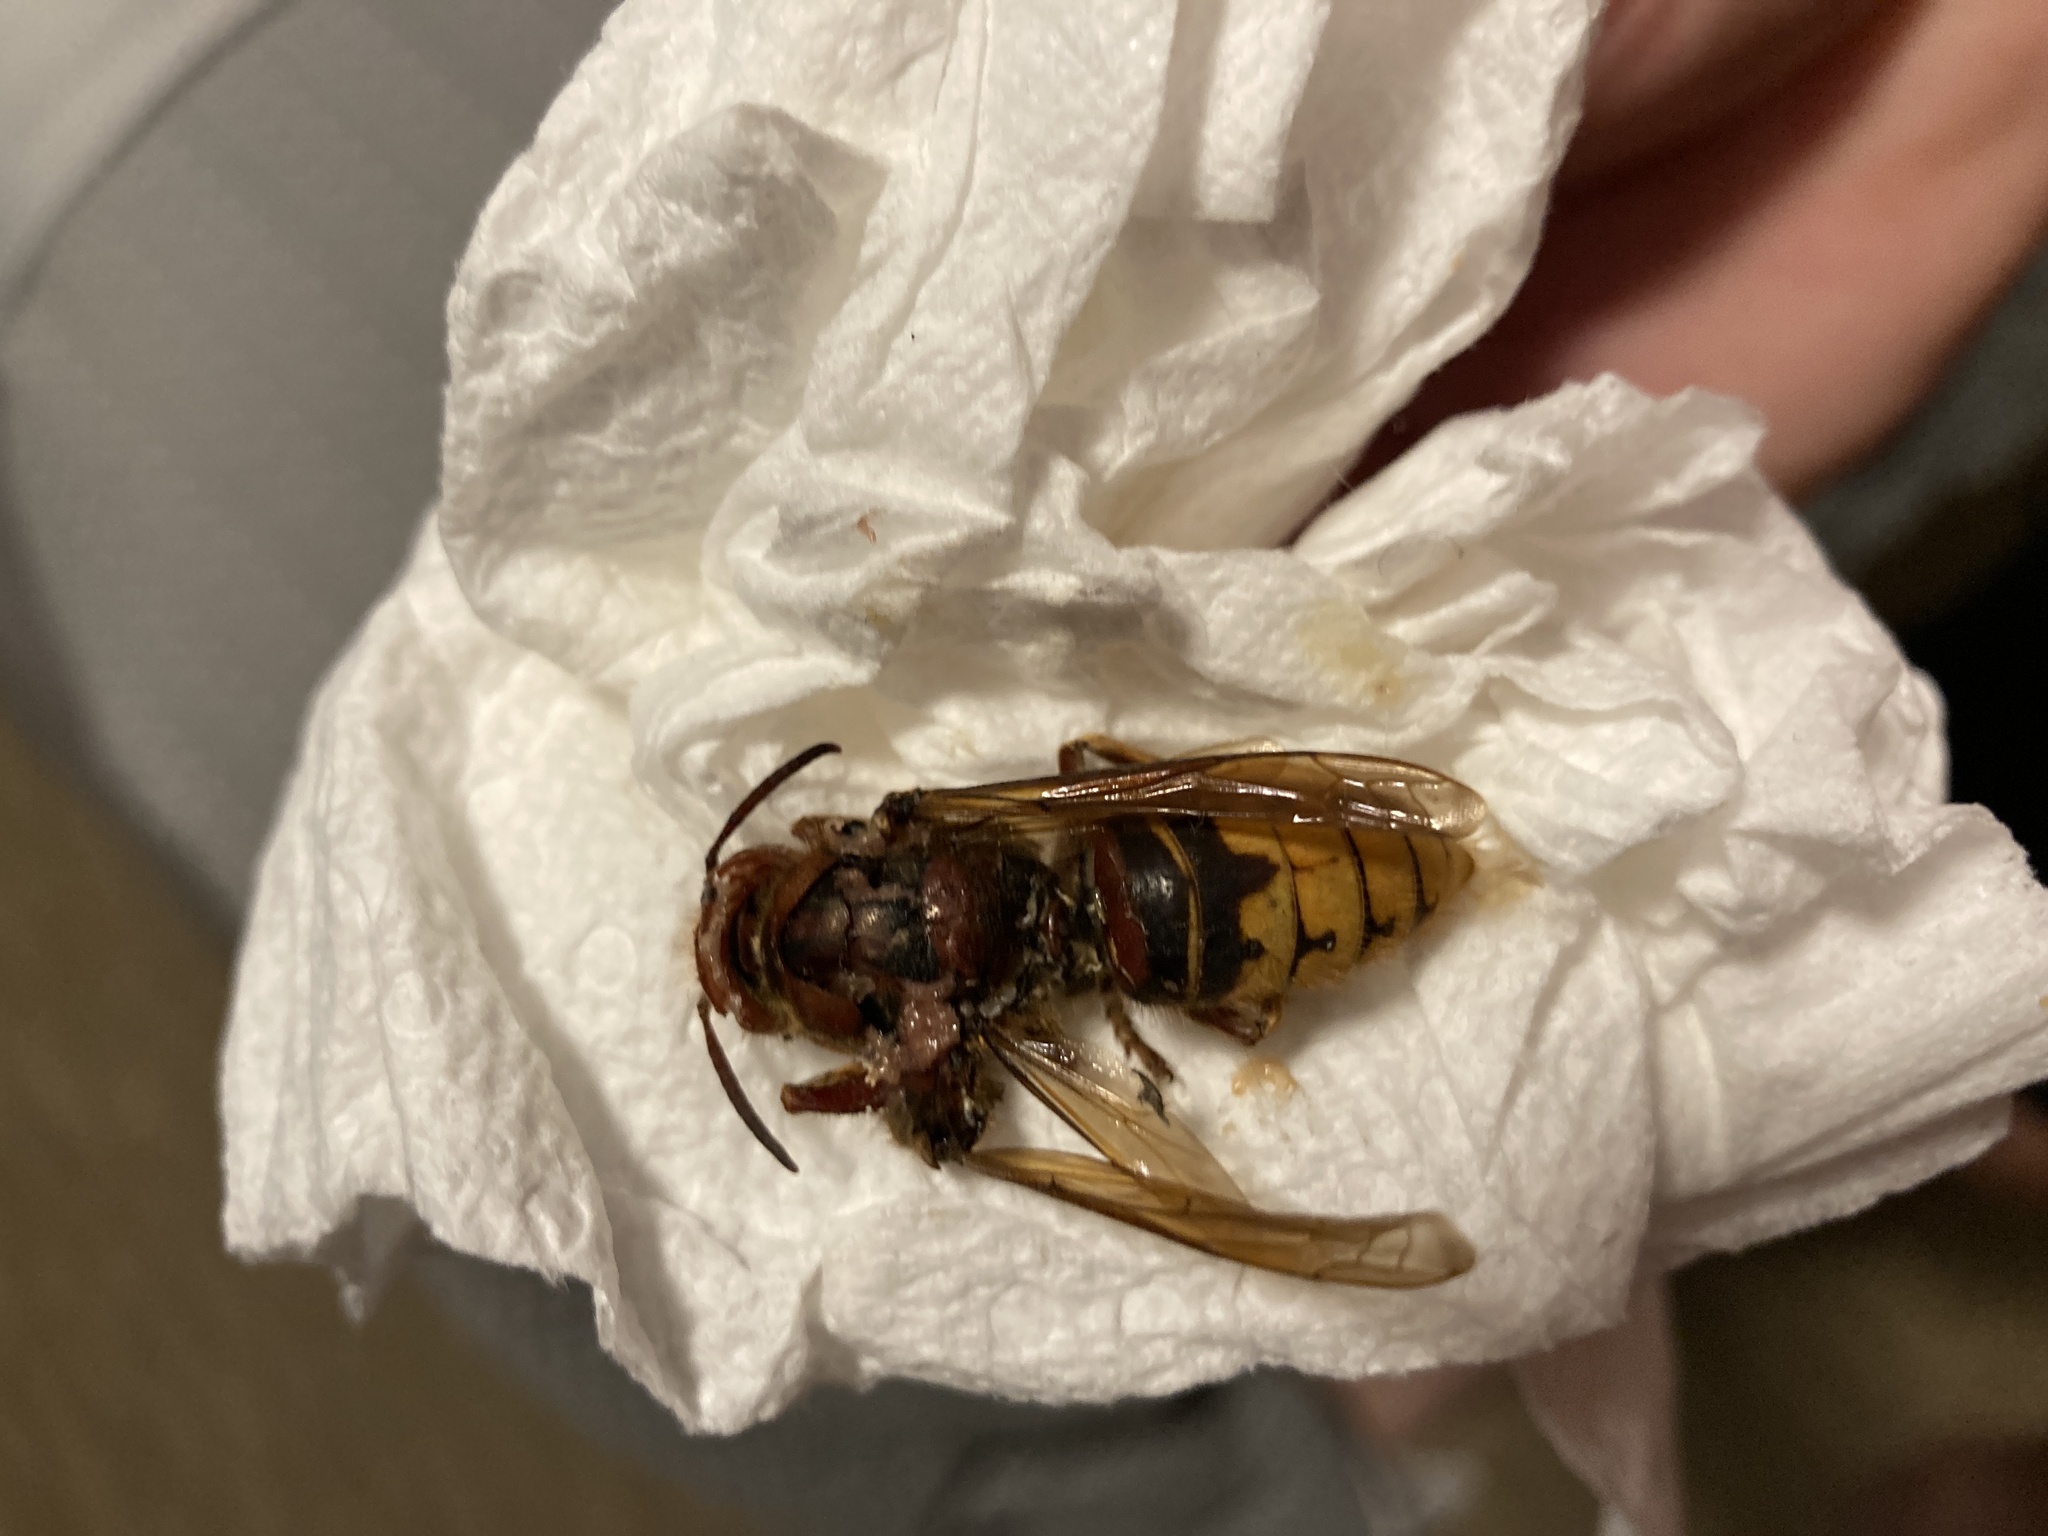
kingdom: Animalia
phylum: Arthropoda
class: Insecta
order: Hymenoptera
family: Vespidae
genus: Vespa
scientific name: Vespa crabro
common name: Hornet
